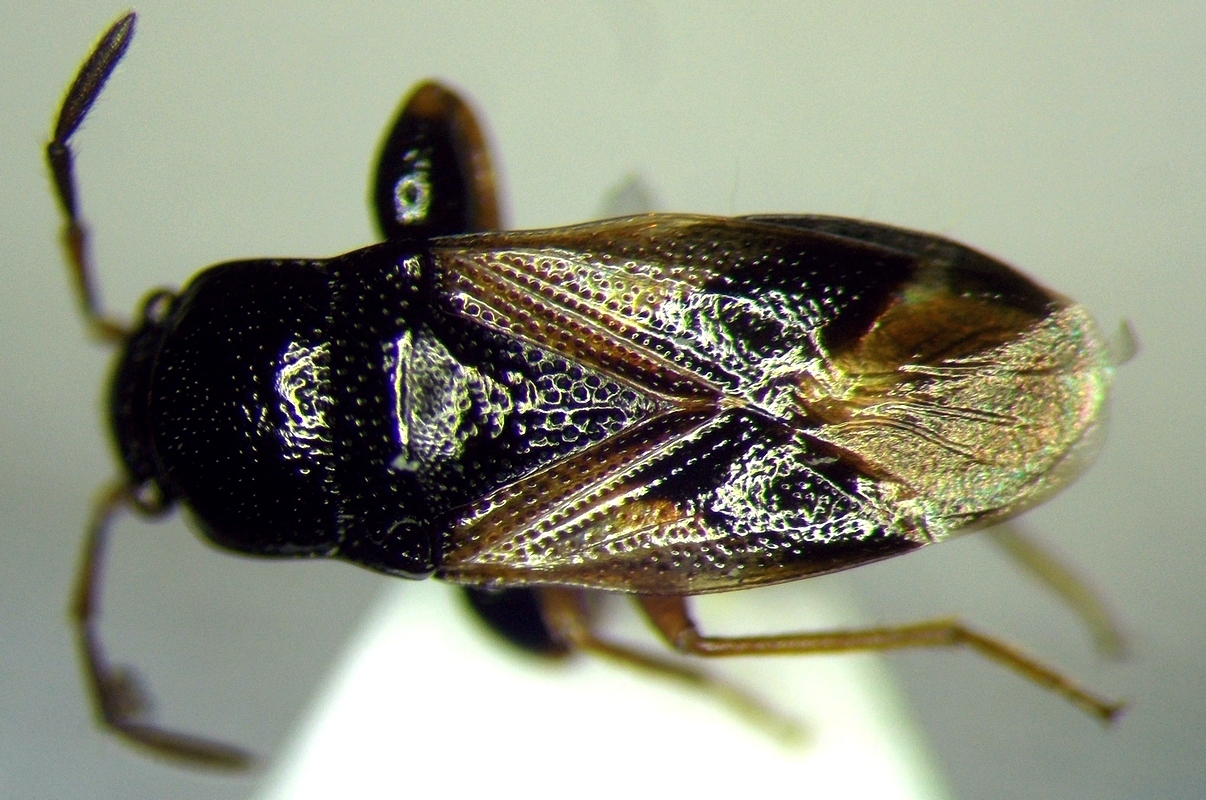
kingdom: Animalia
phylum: Arthropoda
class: Insecta
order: Hemiptera
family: Rhyparochromidae
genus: Megalonotus
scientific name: Megalonotus praetextatus
